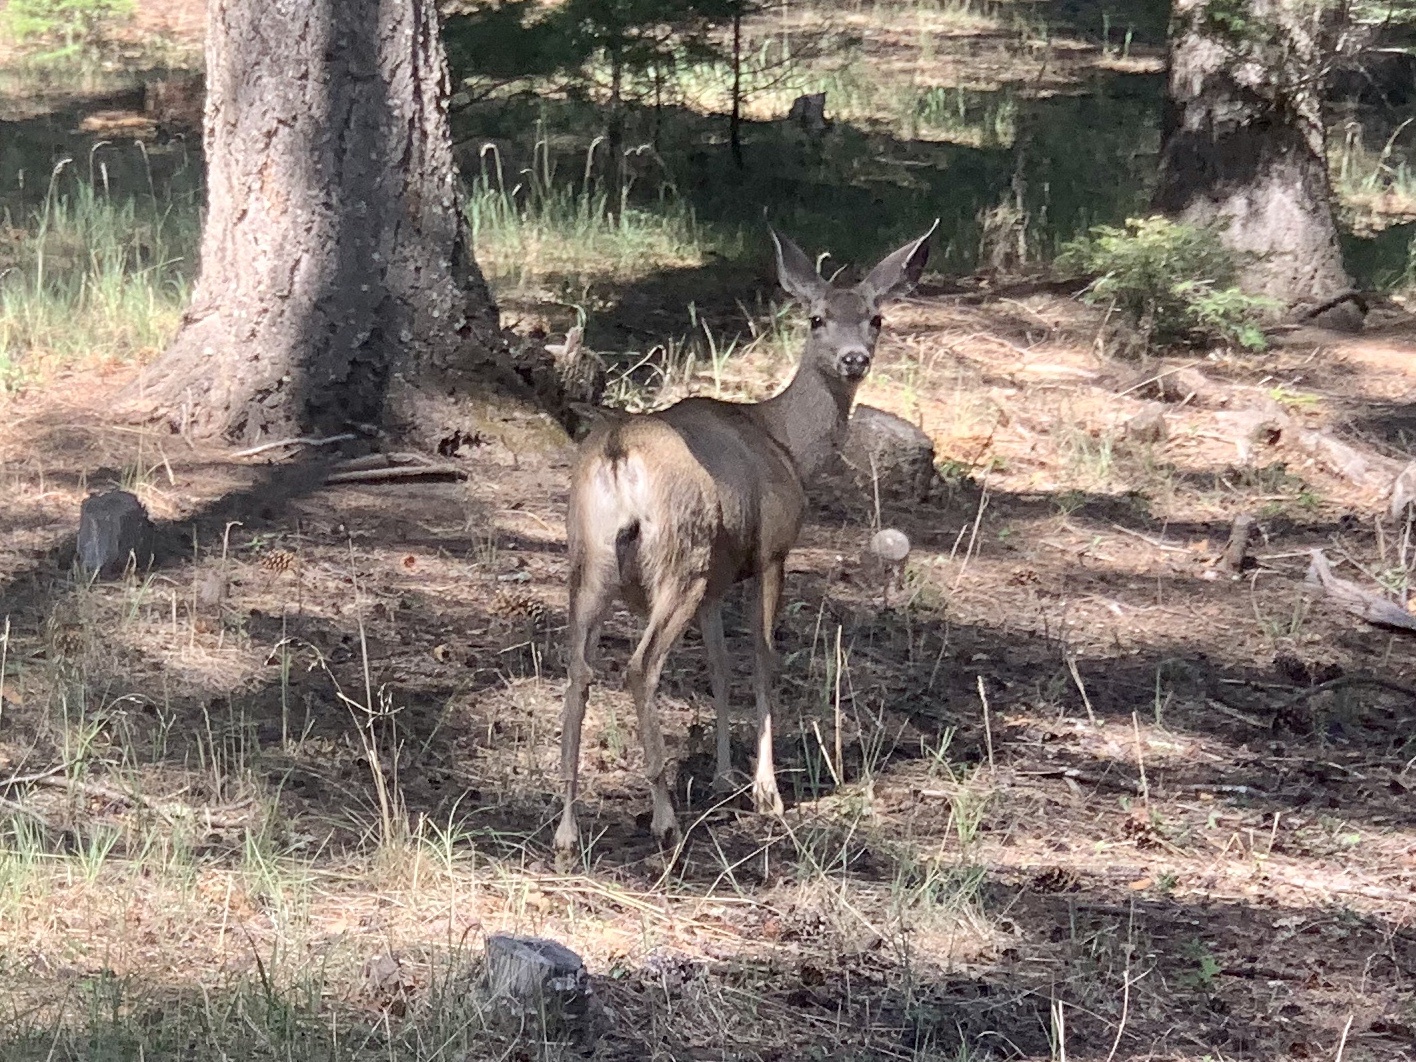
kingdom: Animalia
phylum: Chordata
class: Mammalia
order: Artiodactyla
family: Cervidae
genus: Odocoileus
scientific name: Odocoileus hemionus
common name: Mule deer
